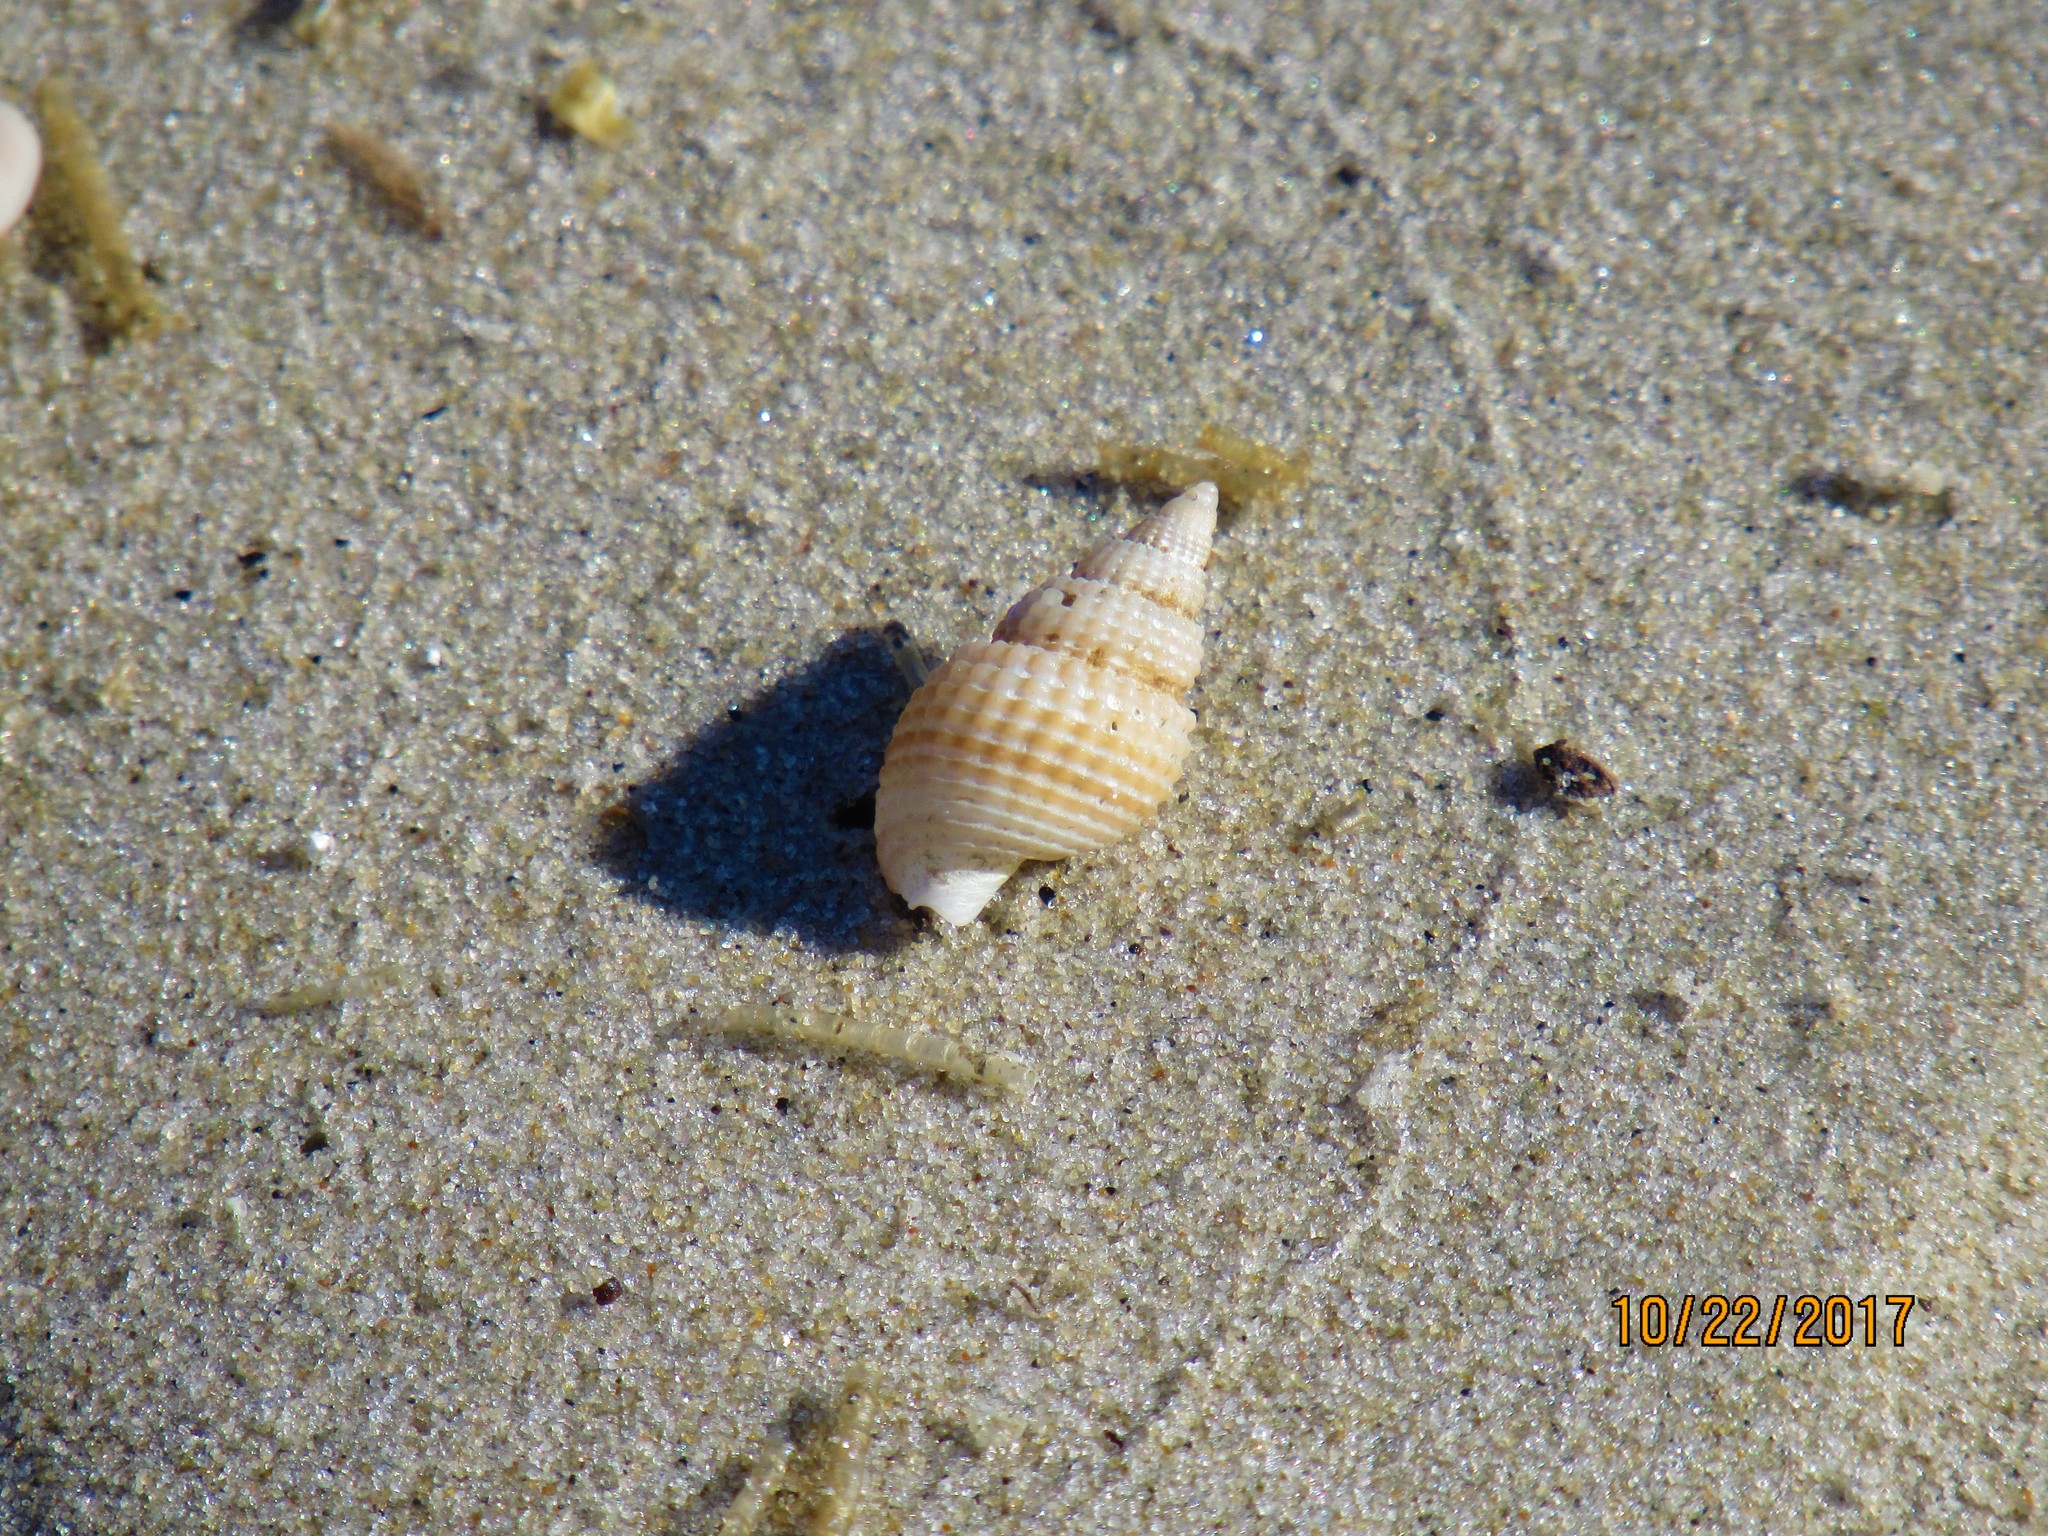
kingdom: Animalia
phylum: Mollusca
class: Gastropoda
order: Neogastropoda
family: Nassariidae
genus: Ilyanassa
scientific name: Ilyanassa trivittata
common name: Three-line mudsnail
